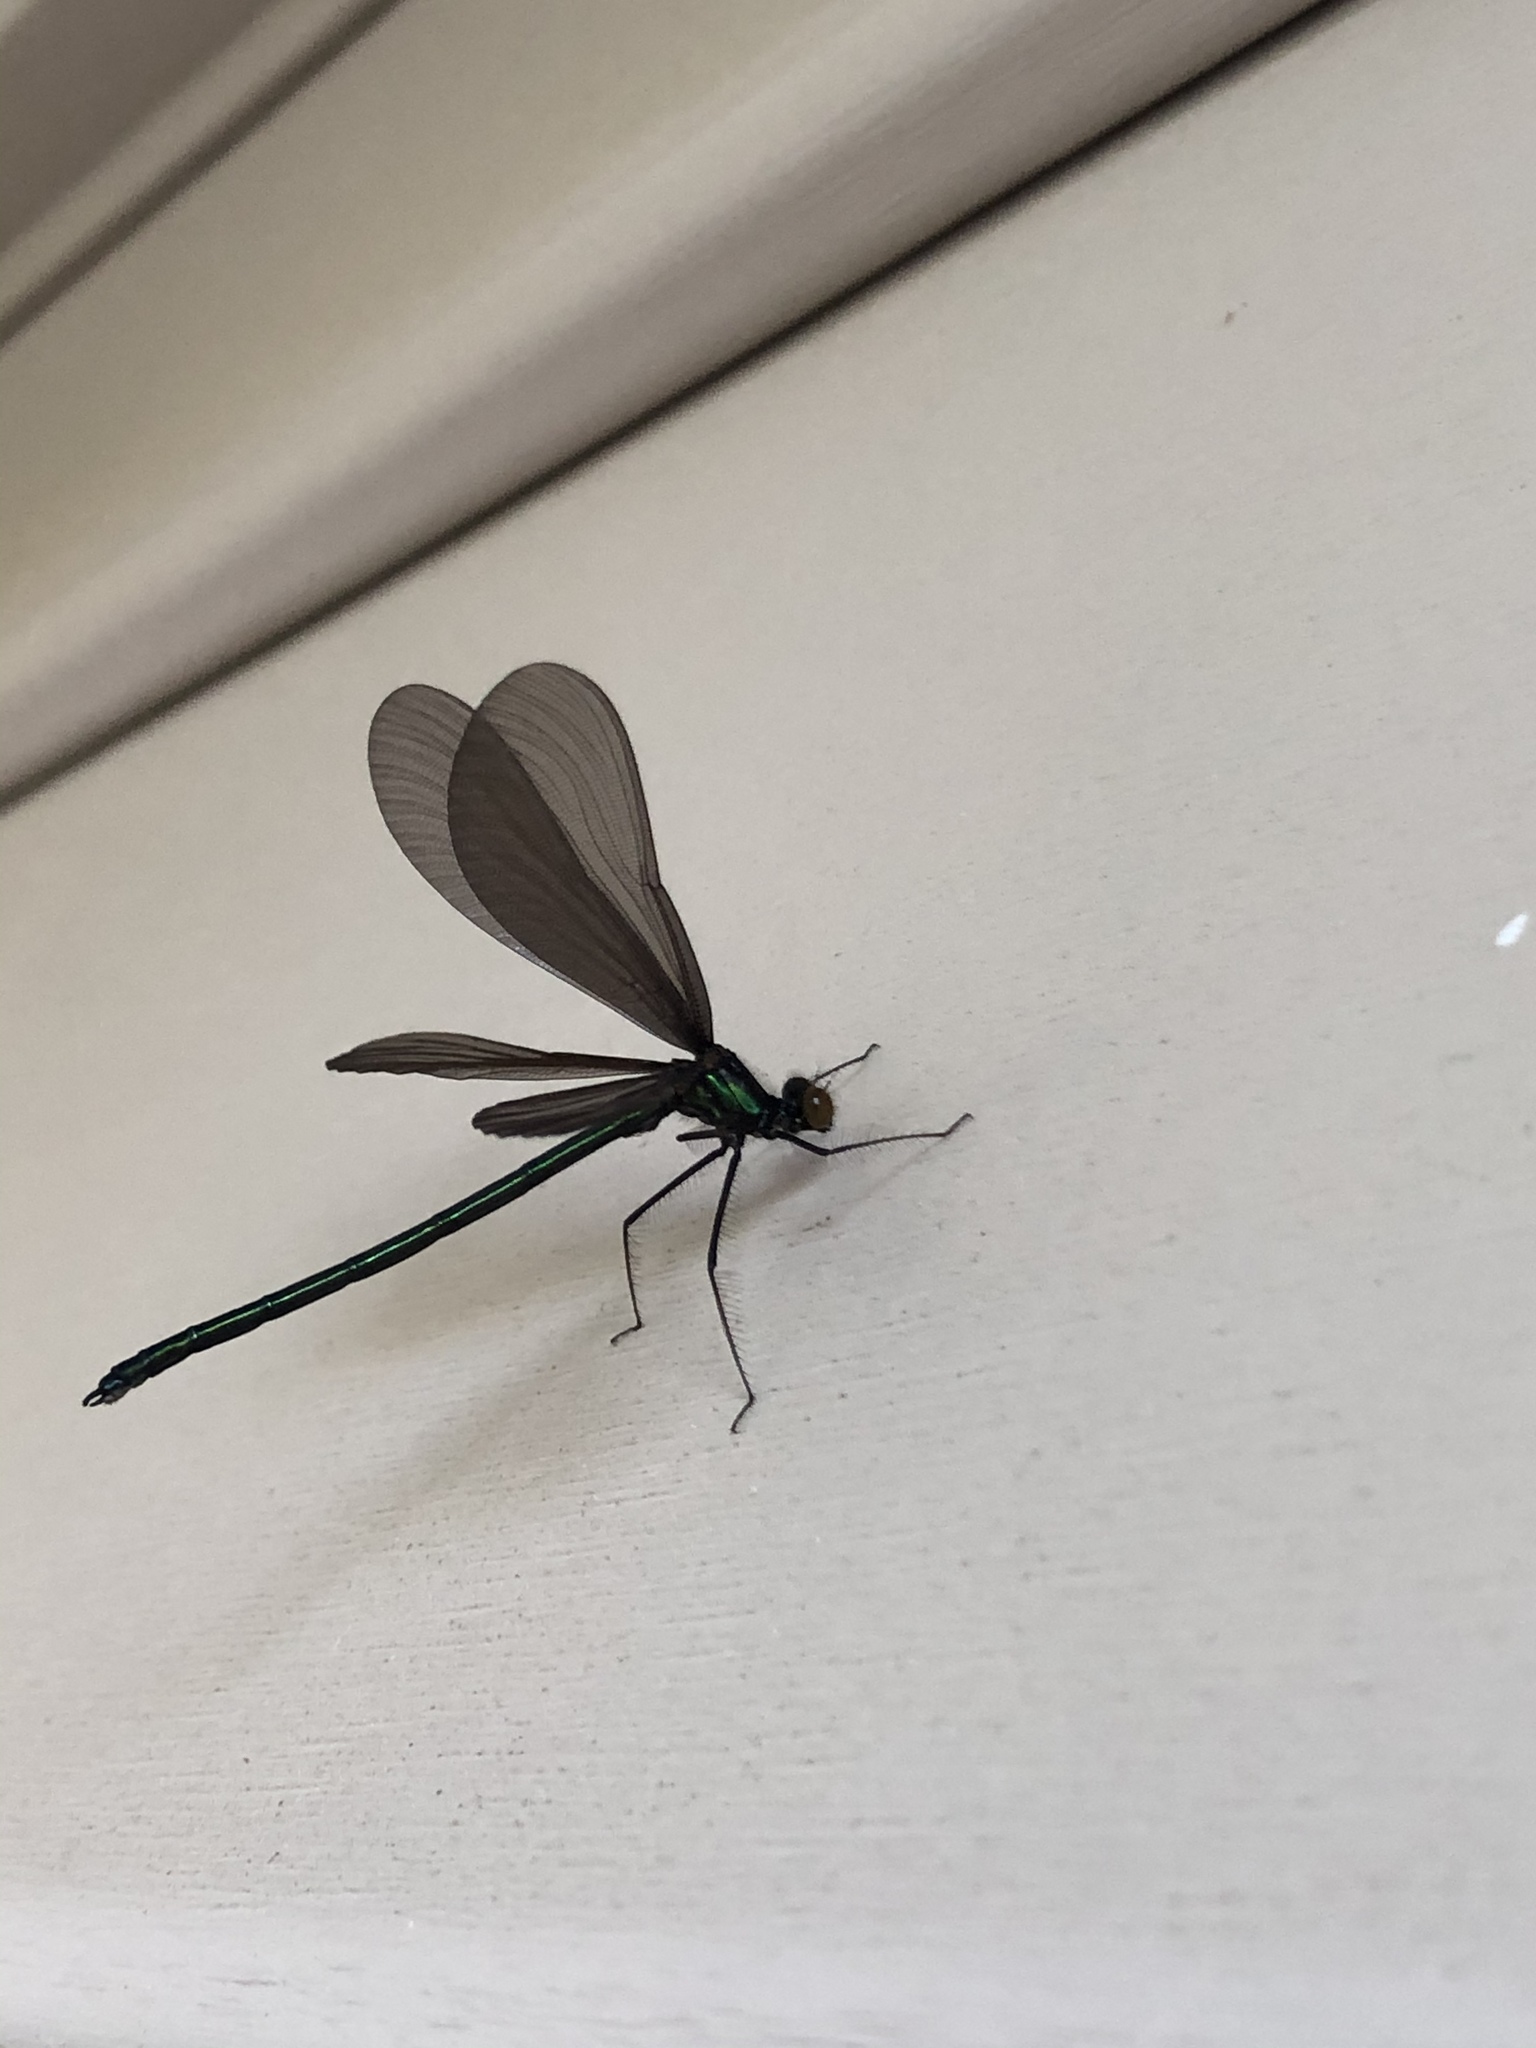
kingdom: Animalia
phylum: Arthropoda
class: Insecta
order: Odonata
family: Calopterygidae
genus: Calopteryx
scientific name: Calopteryx maculata
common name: Ebony jewelwing
